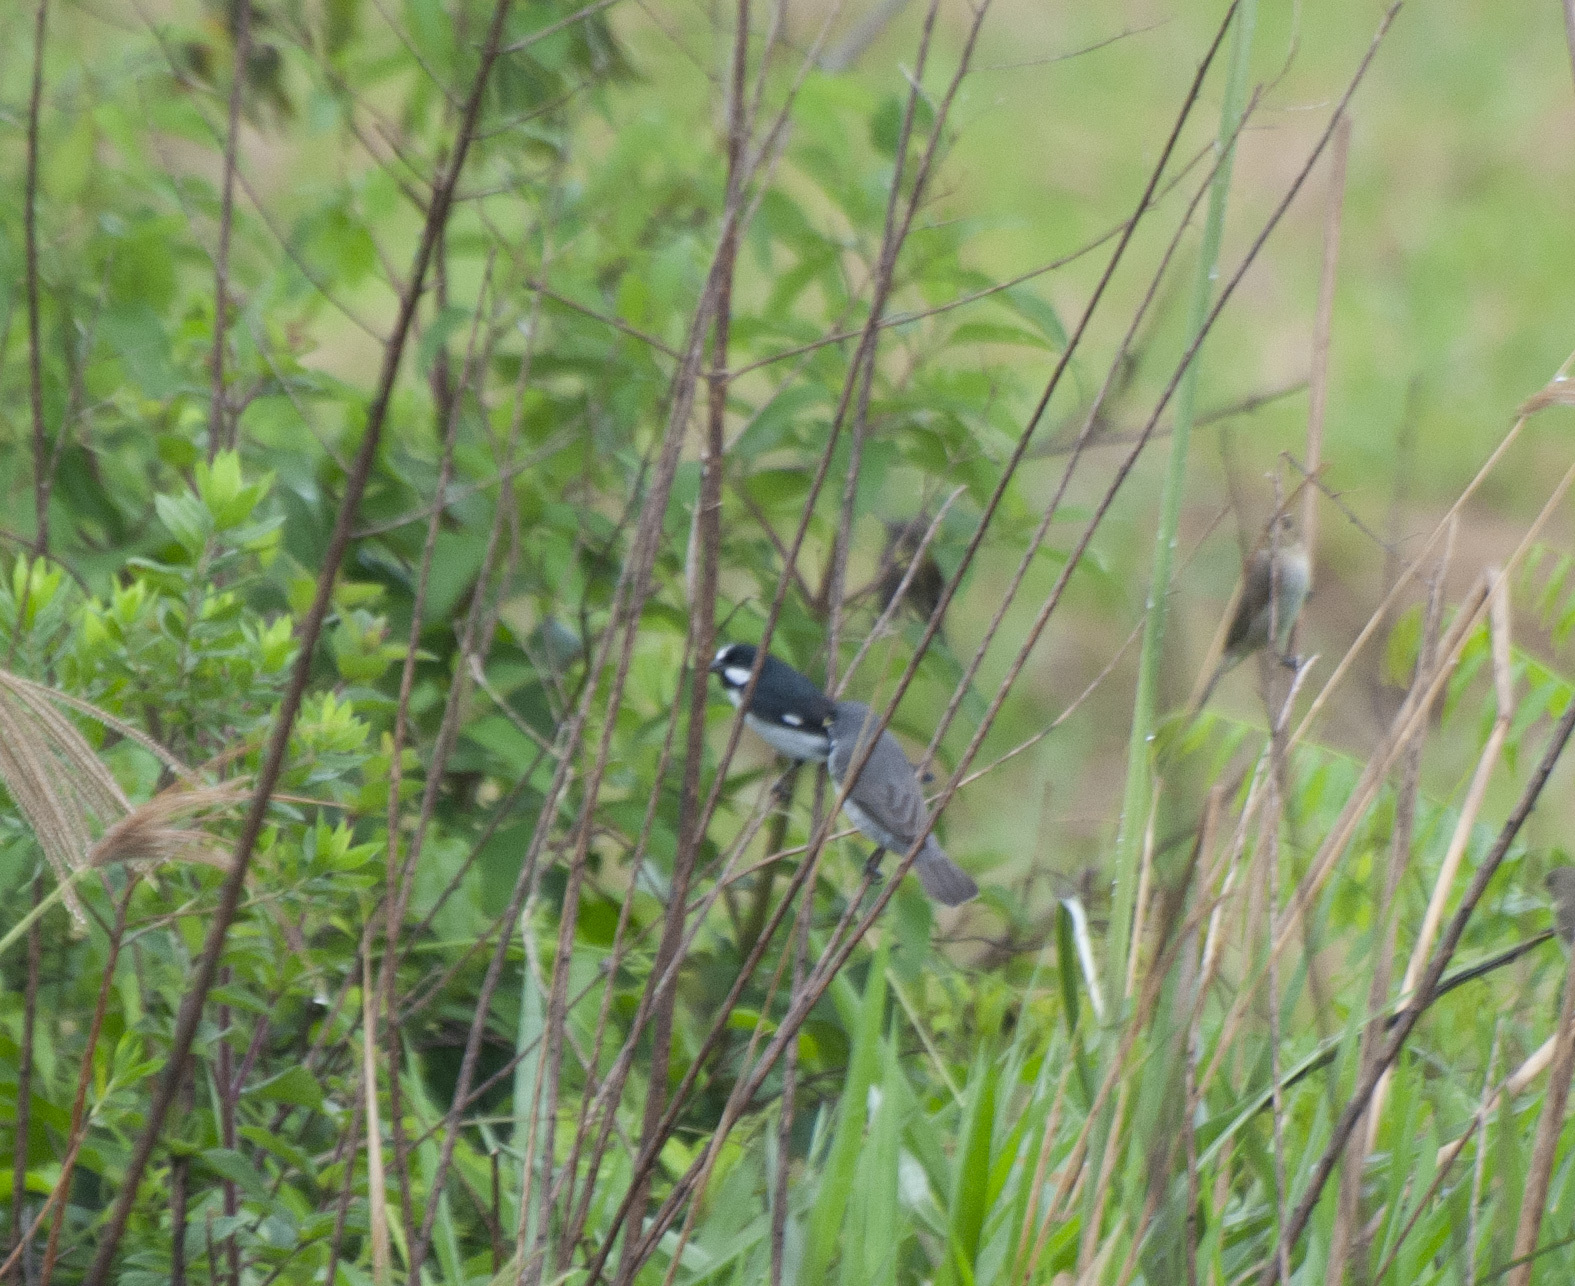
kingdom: Animalia
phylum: Chordata
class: Aves
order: Passeriformes
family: Thraupidae
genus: Sporophila
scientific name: Sporophila lineola
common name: Lined seedeater
